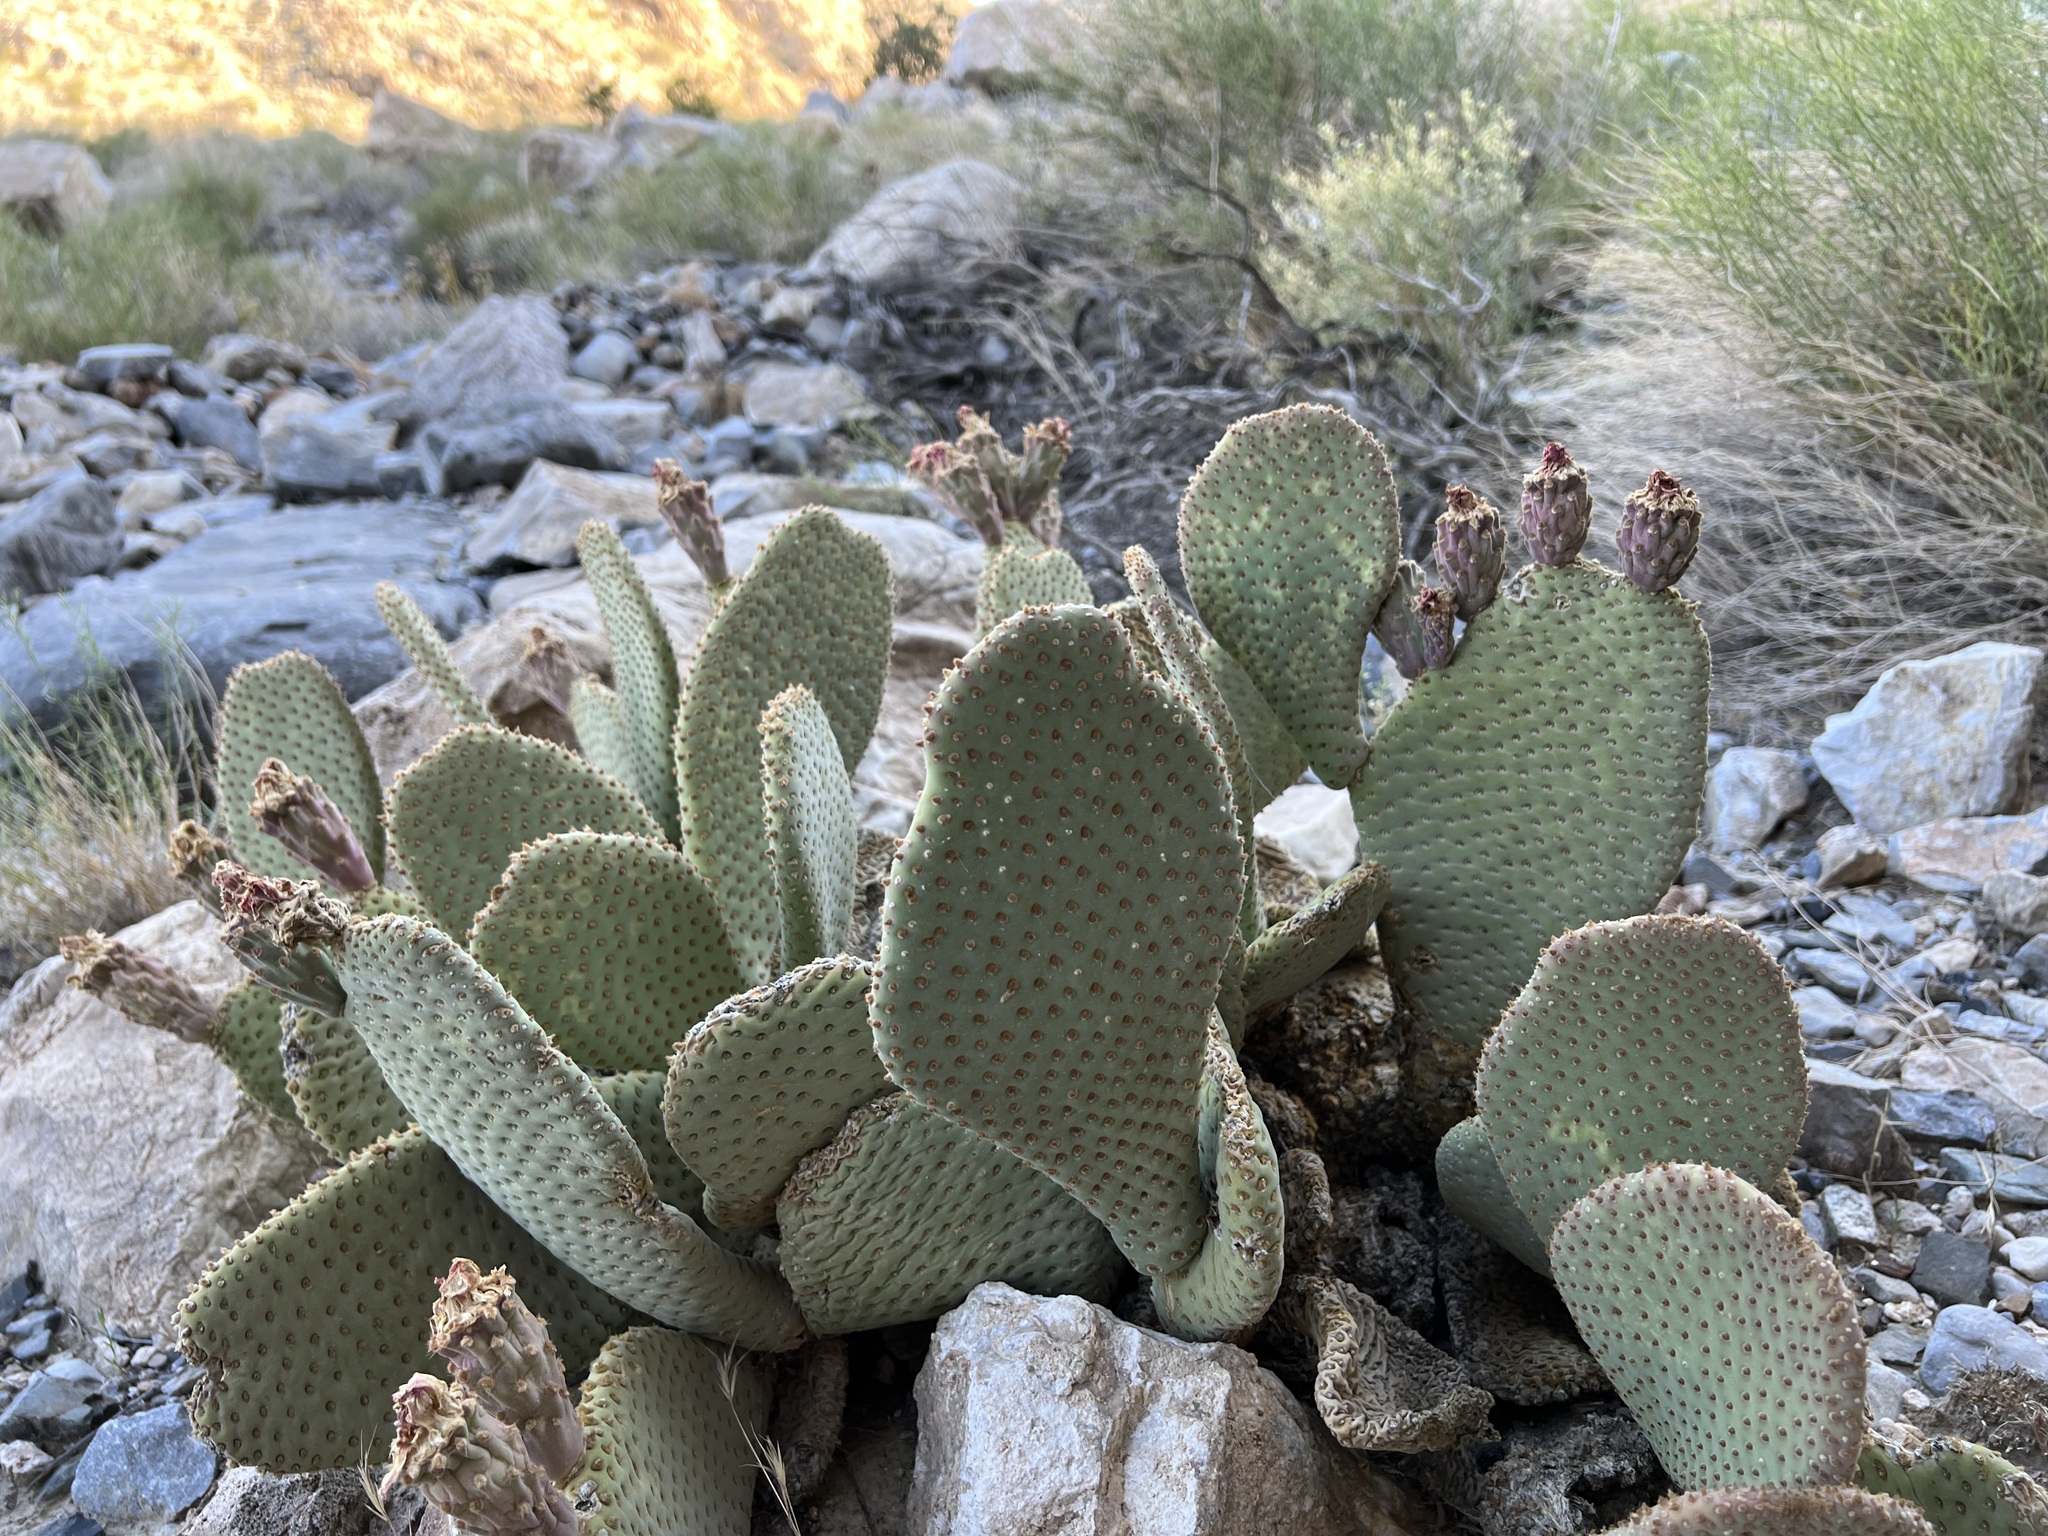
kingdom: Plantae
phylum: Tracheophyta
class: Magnoliopsida
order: Caryophyllales
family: Cactaceae
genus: Opuntia
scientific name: Opuntia basilaris
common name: Beavertail prickly-pear
